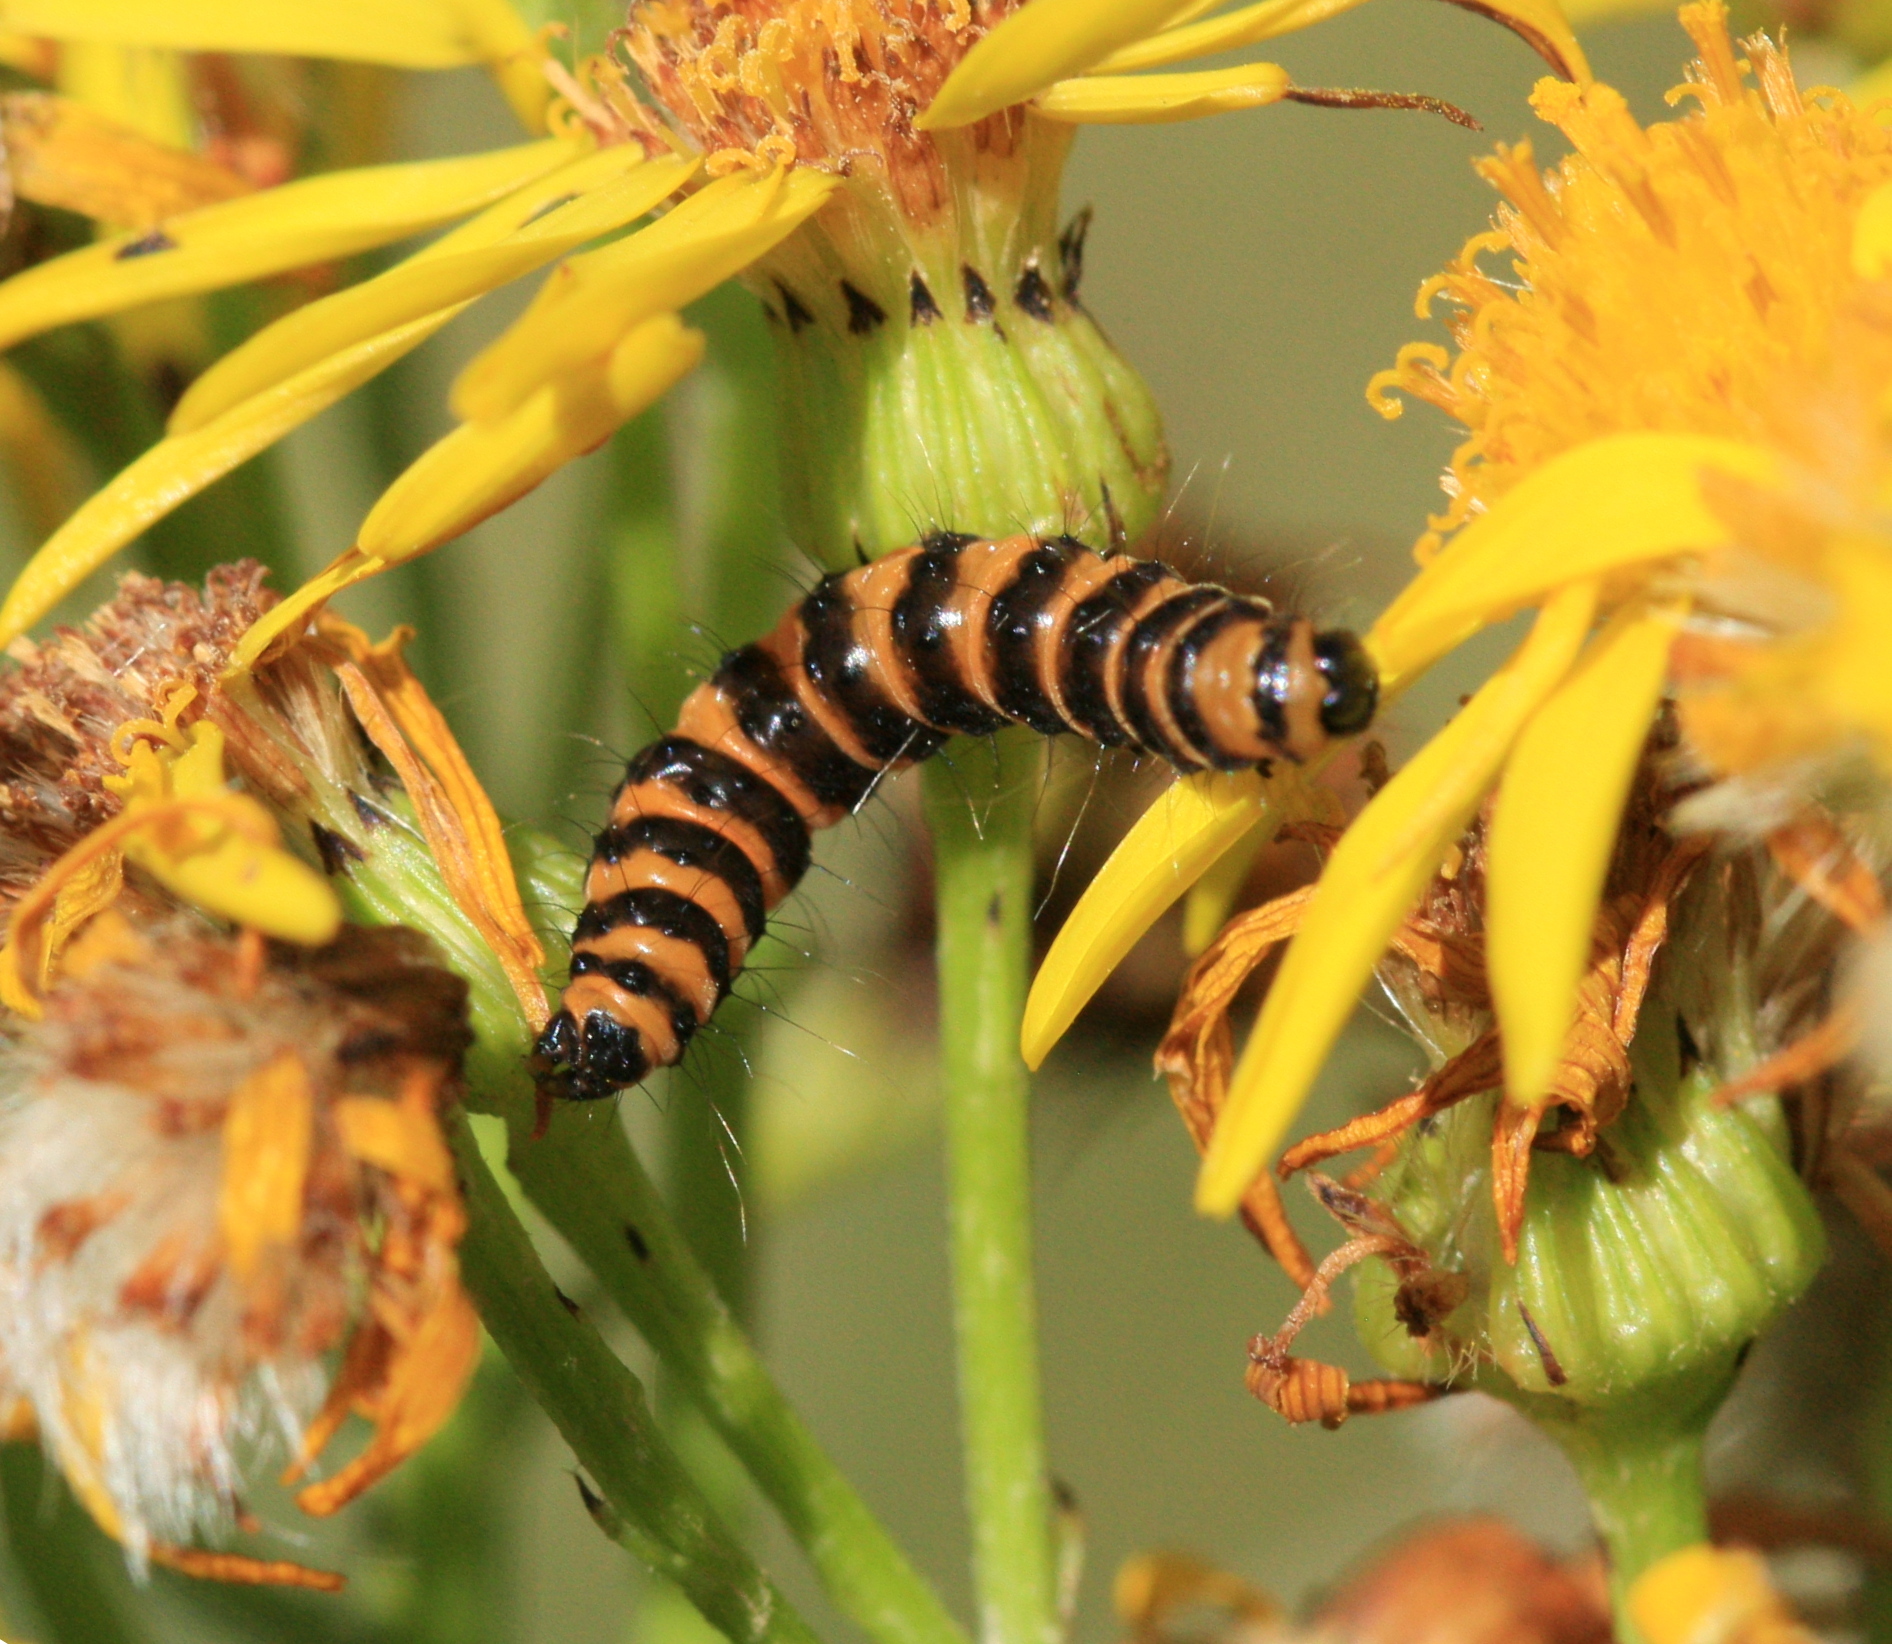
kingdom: Animalia
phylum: Arthropoda
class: Insecta
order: Lepidoptera
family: Erebidae
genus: Tyria
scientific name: Tyria jacobaeae
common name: Cinnabar
